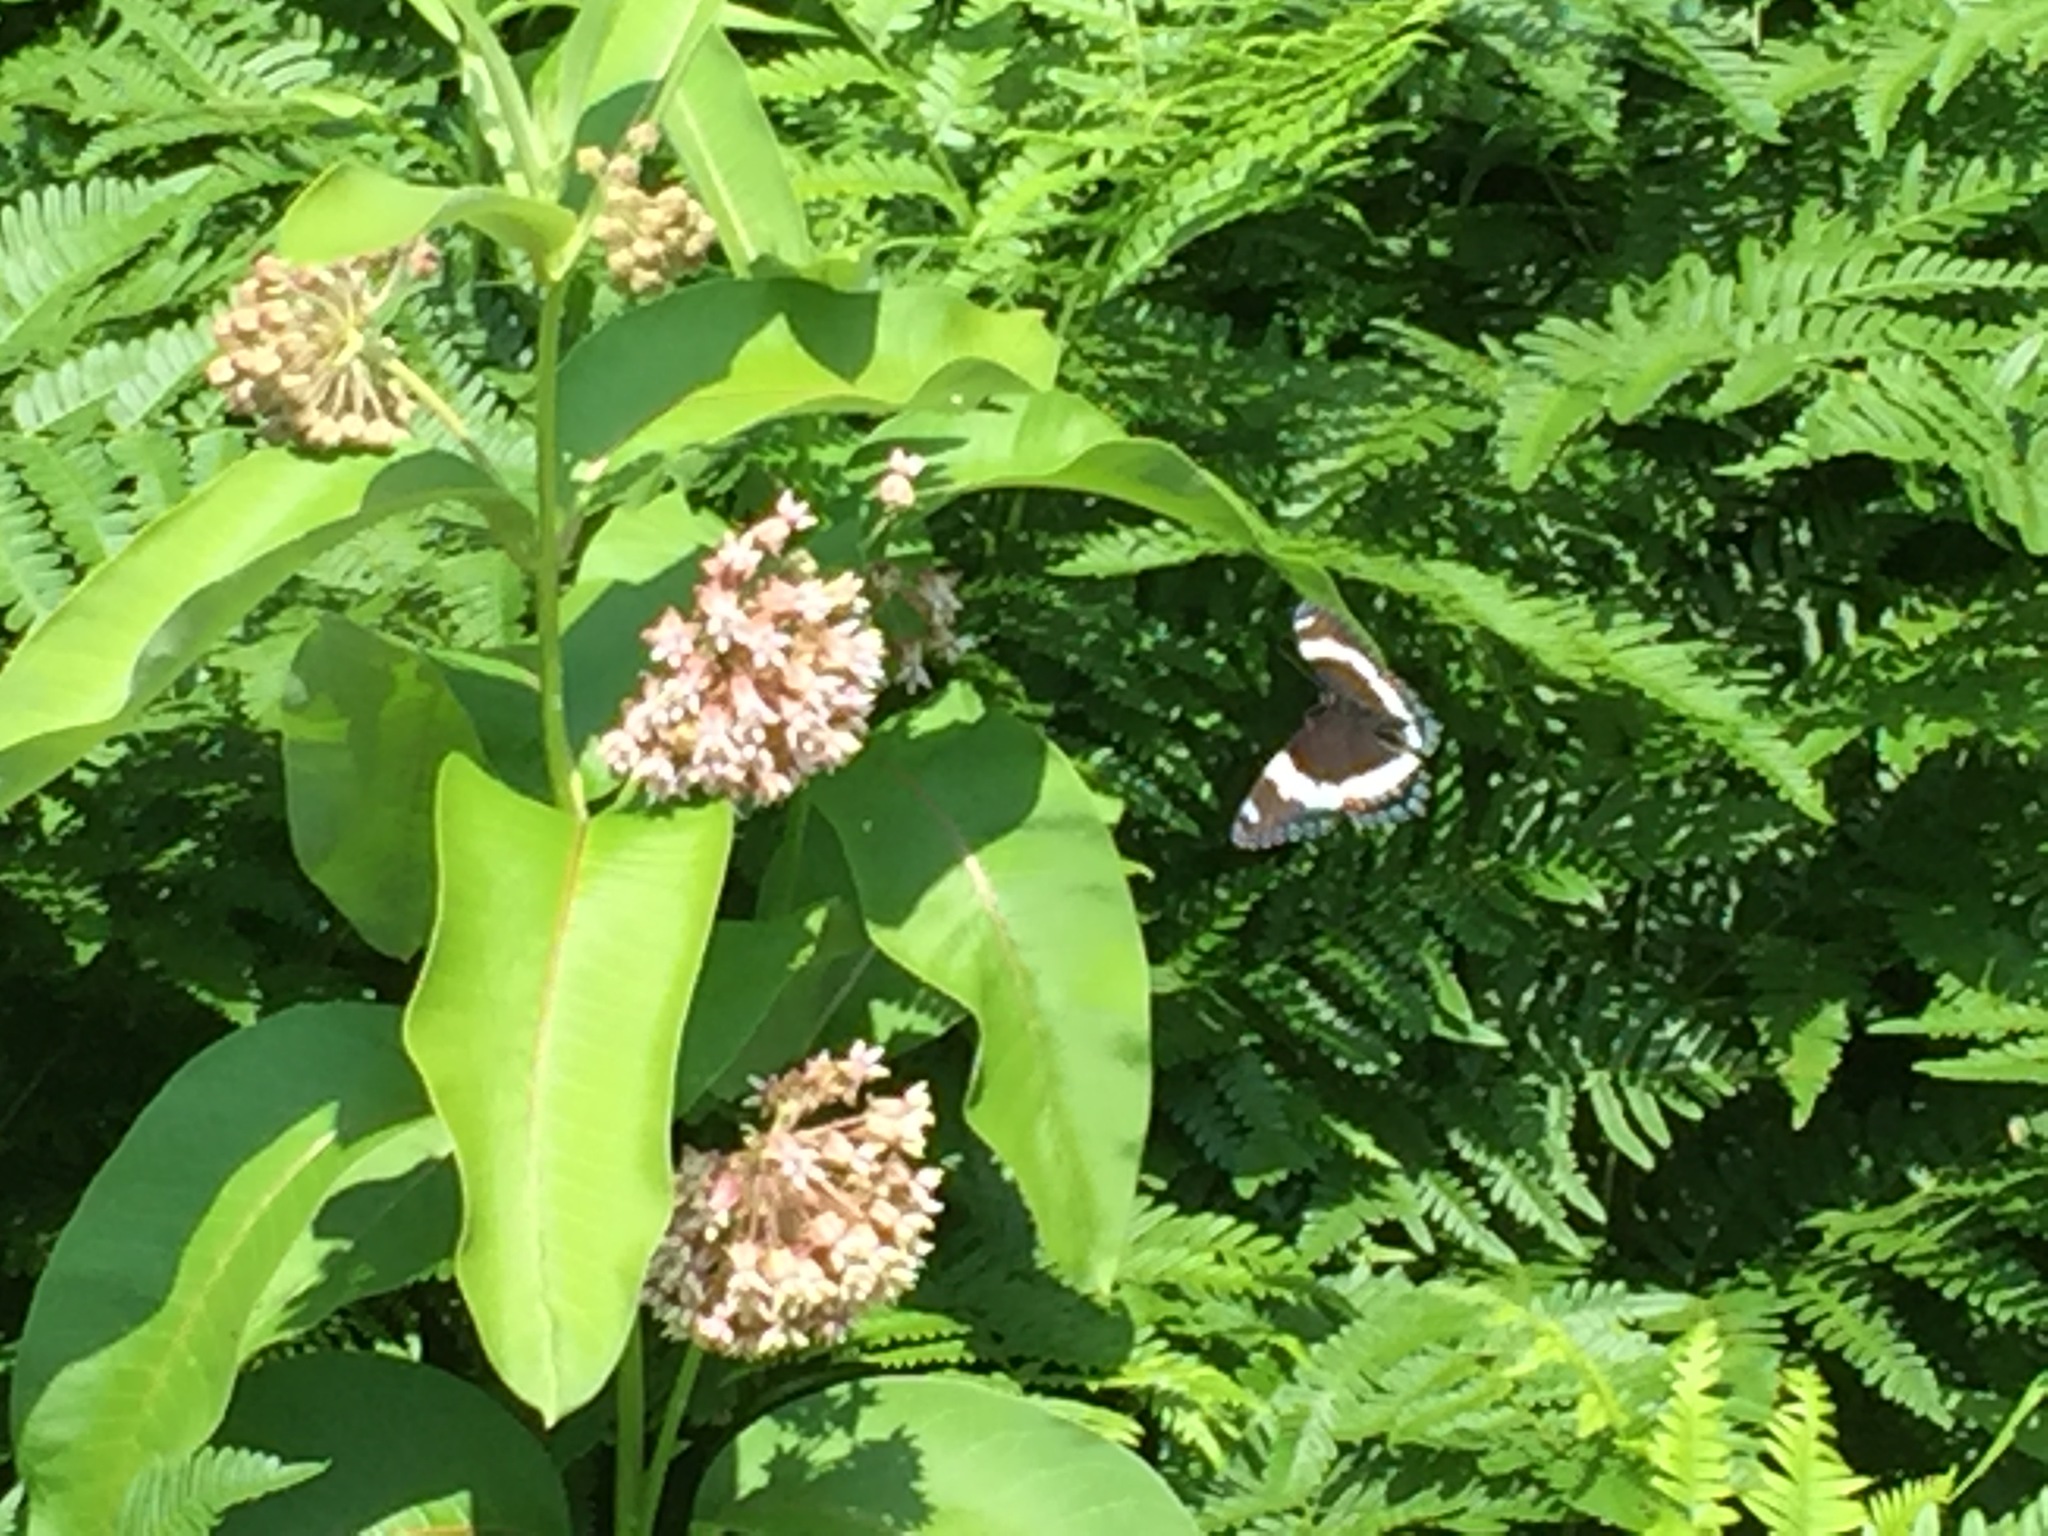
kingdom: Animalia
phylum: Arthropoda
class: Insecta
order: Lepidoptera
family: Nymphalidae
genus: Limenitis
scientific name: Limenitis arthemis
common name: Red-spotted admiral
